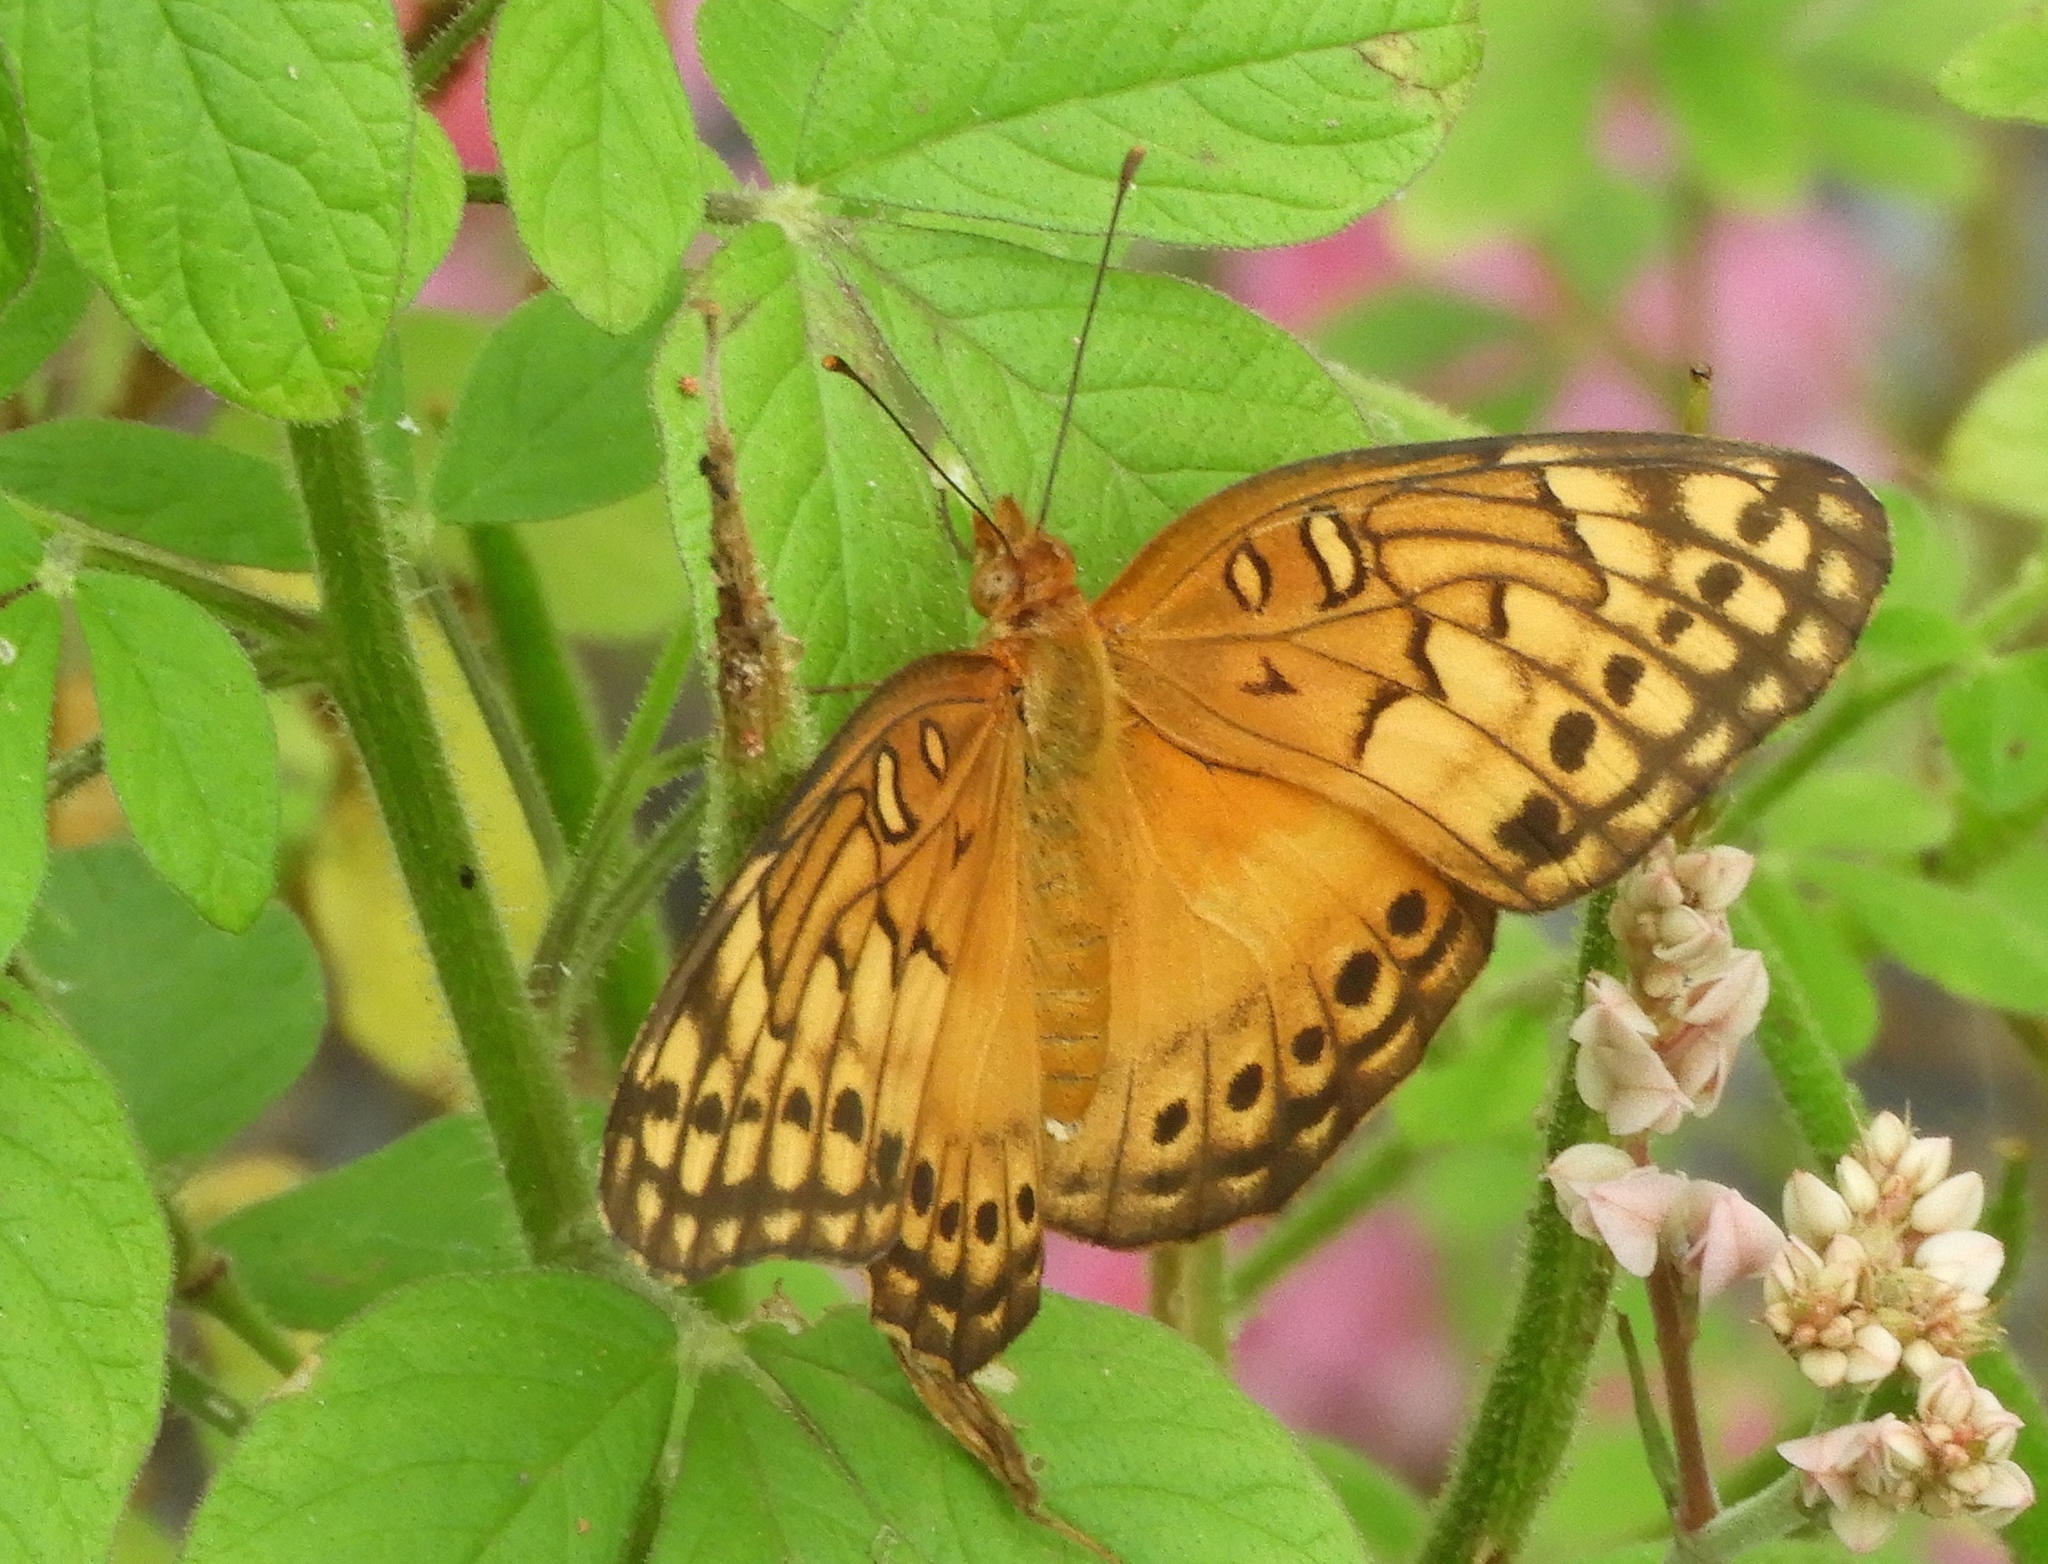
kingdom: Animalia
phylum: Arthropoda
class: Insecta
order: Lepidoptera
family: Nymphalidae
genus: Euptoieta
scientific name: Euptoieta hegesia
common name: Mexican fritillary
